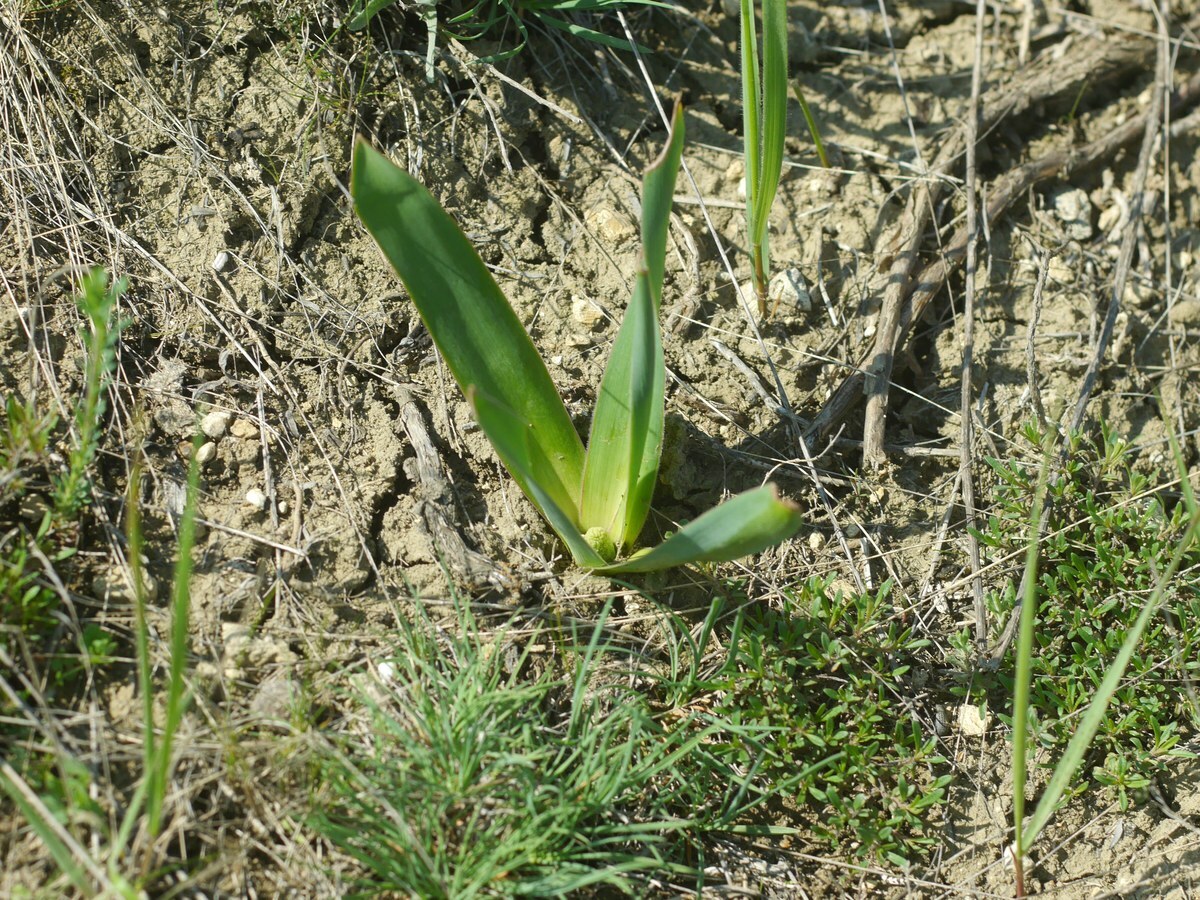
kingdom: Plantae
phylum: Tracheophyta
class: Liliopsida
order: Asparagales
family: Asparagaceae
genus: Bellevalia
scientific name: Bellevalia speciosa
